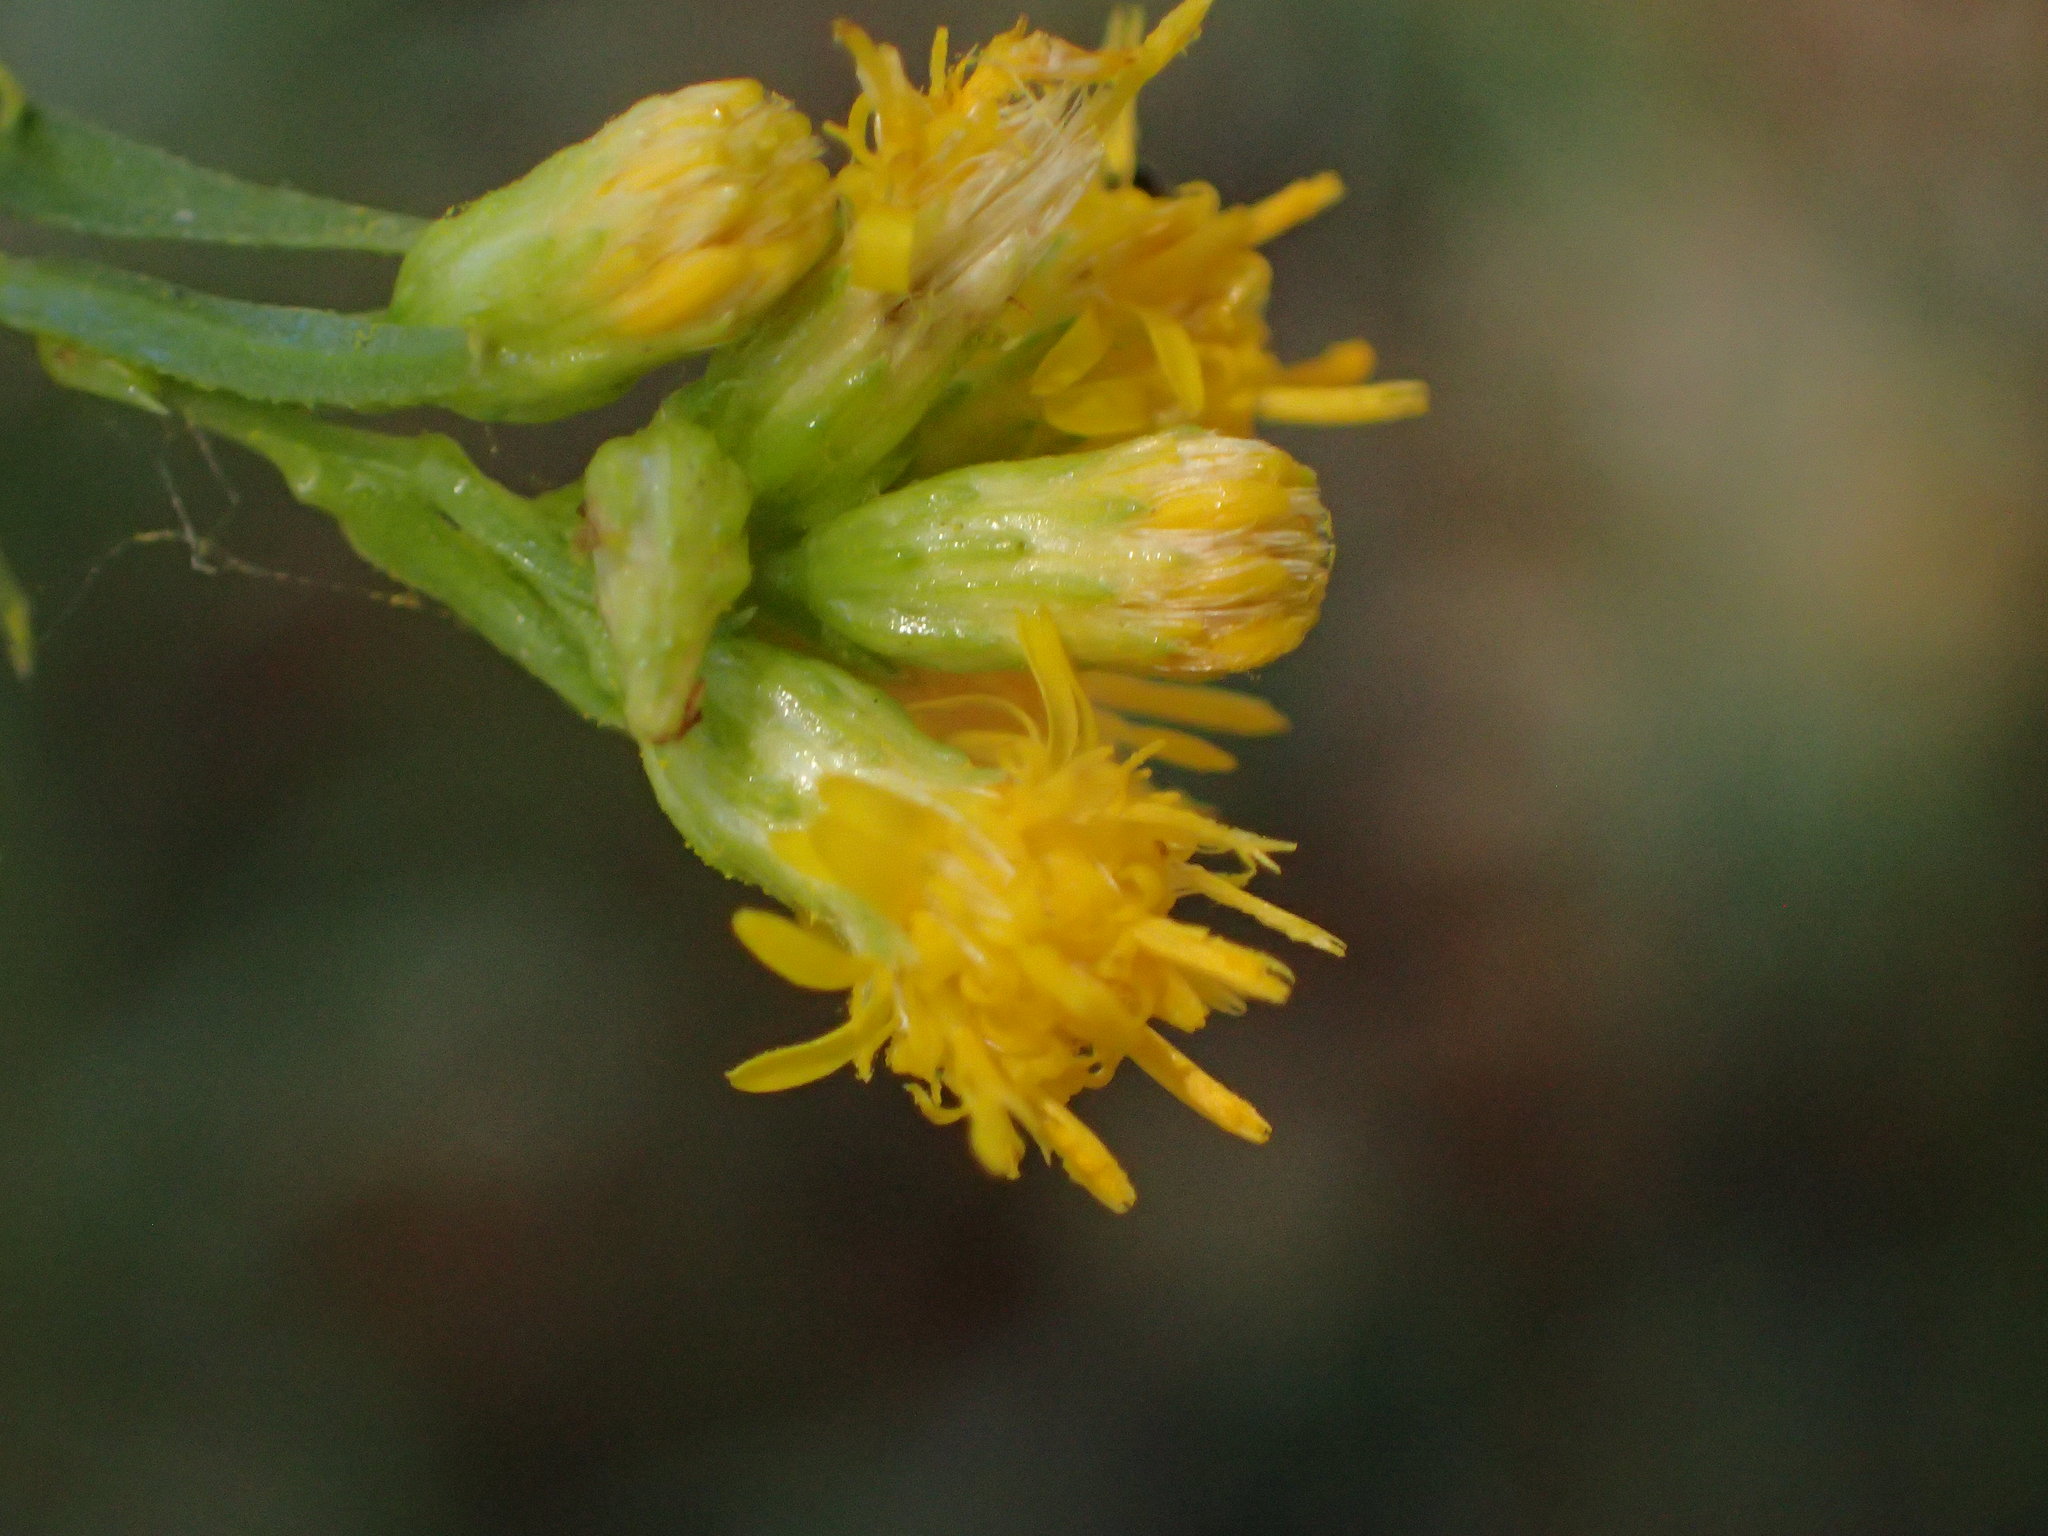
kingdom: Plantae
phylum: Tracheophyta
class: Magnoliopsida
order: Asterales
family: Asteraceae
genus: Euthamia
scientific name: Euthamia occidentalis
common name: Western goldentop
